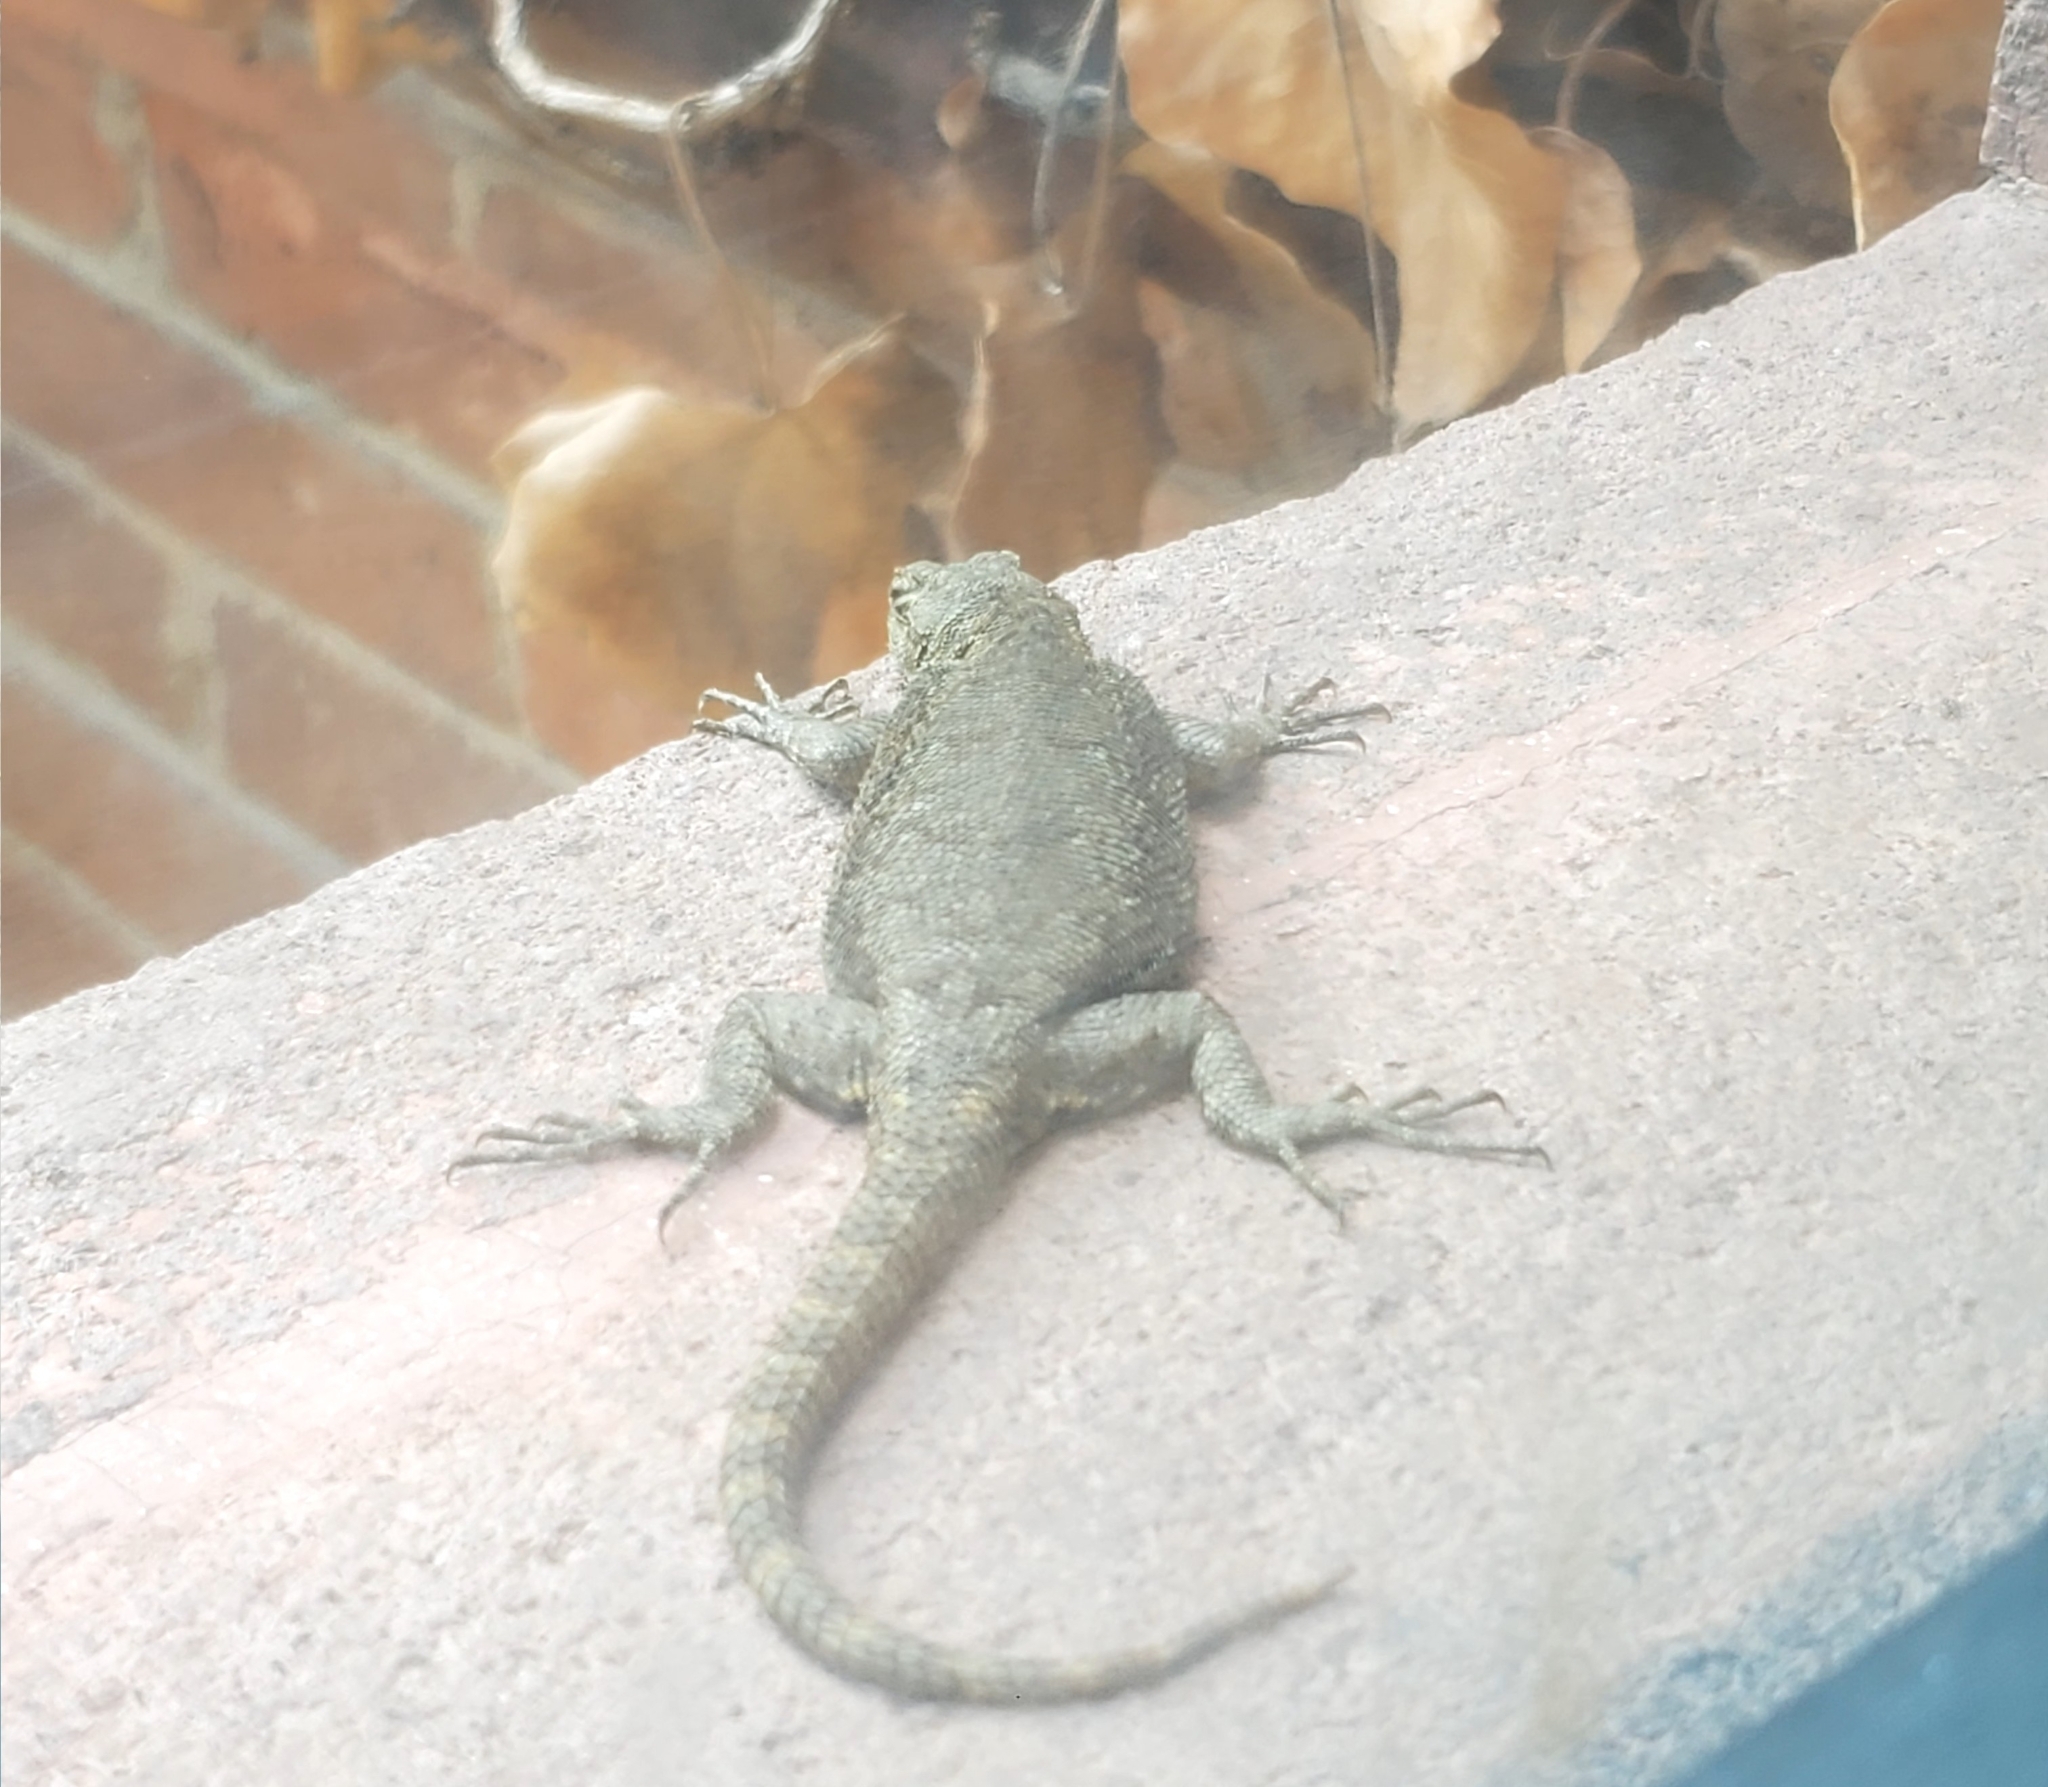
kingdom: Animalia
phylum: Chordata
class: Squamata
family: Phrynosomatidae
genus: Sceloporus
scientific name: Sceloporus spinosus
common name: Blue-spotted spiny lizard [caeruleopunctatus]
